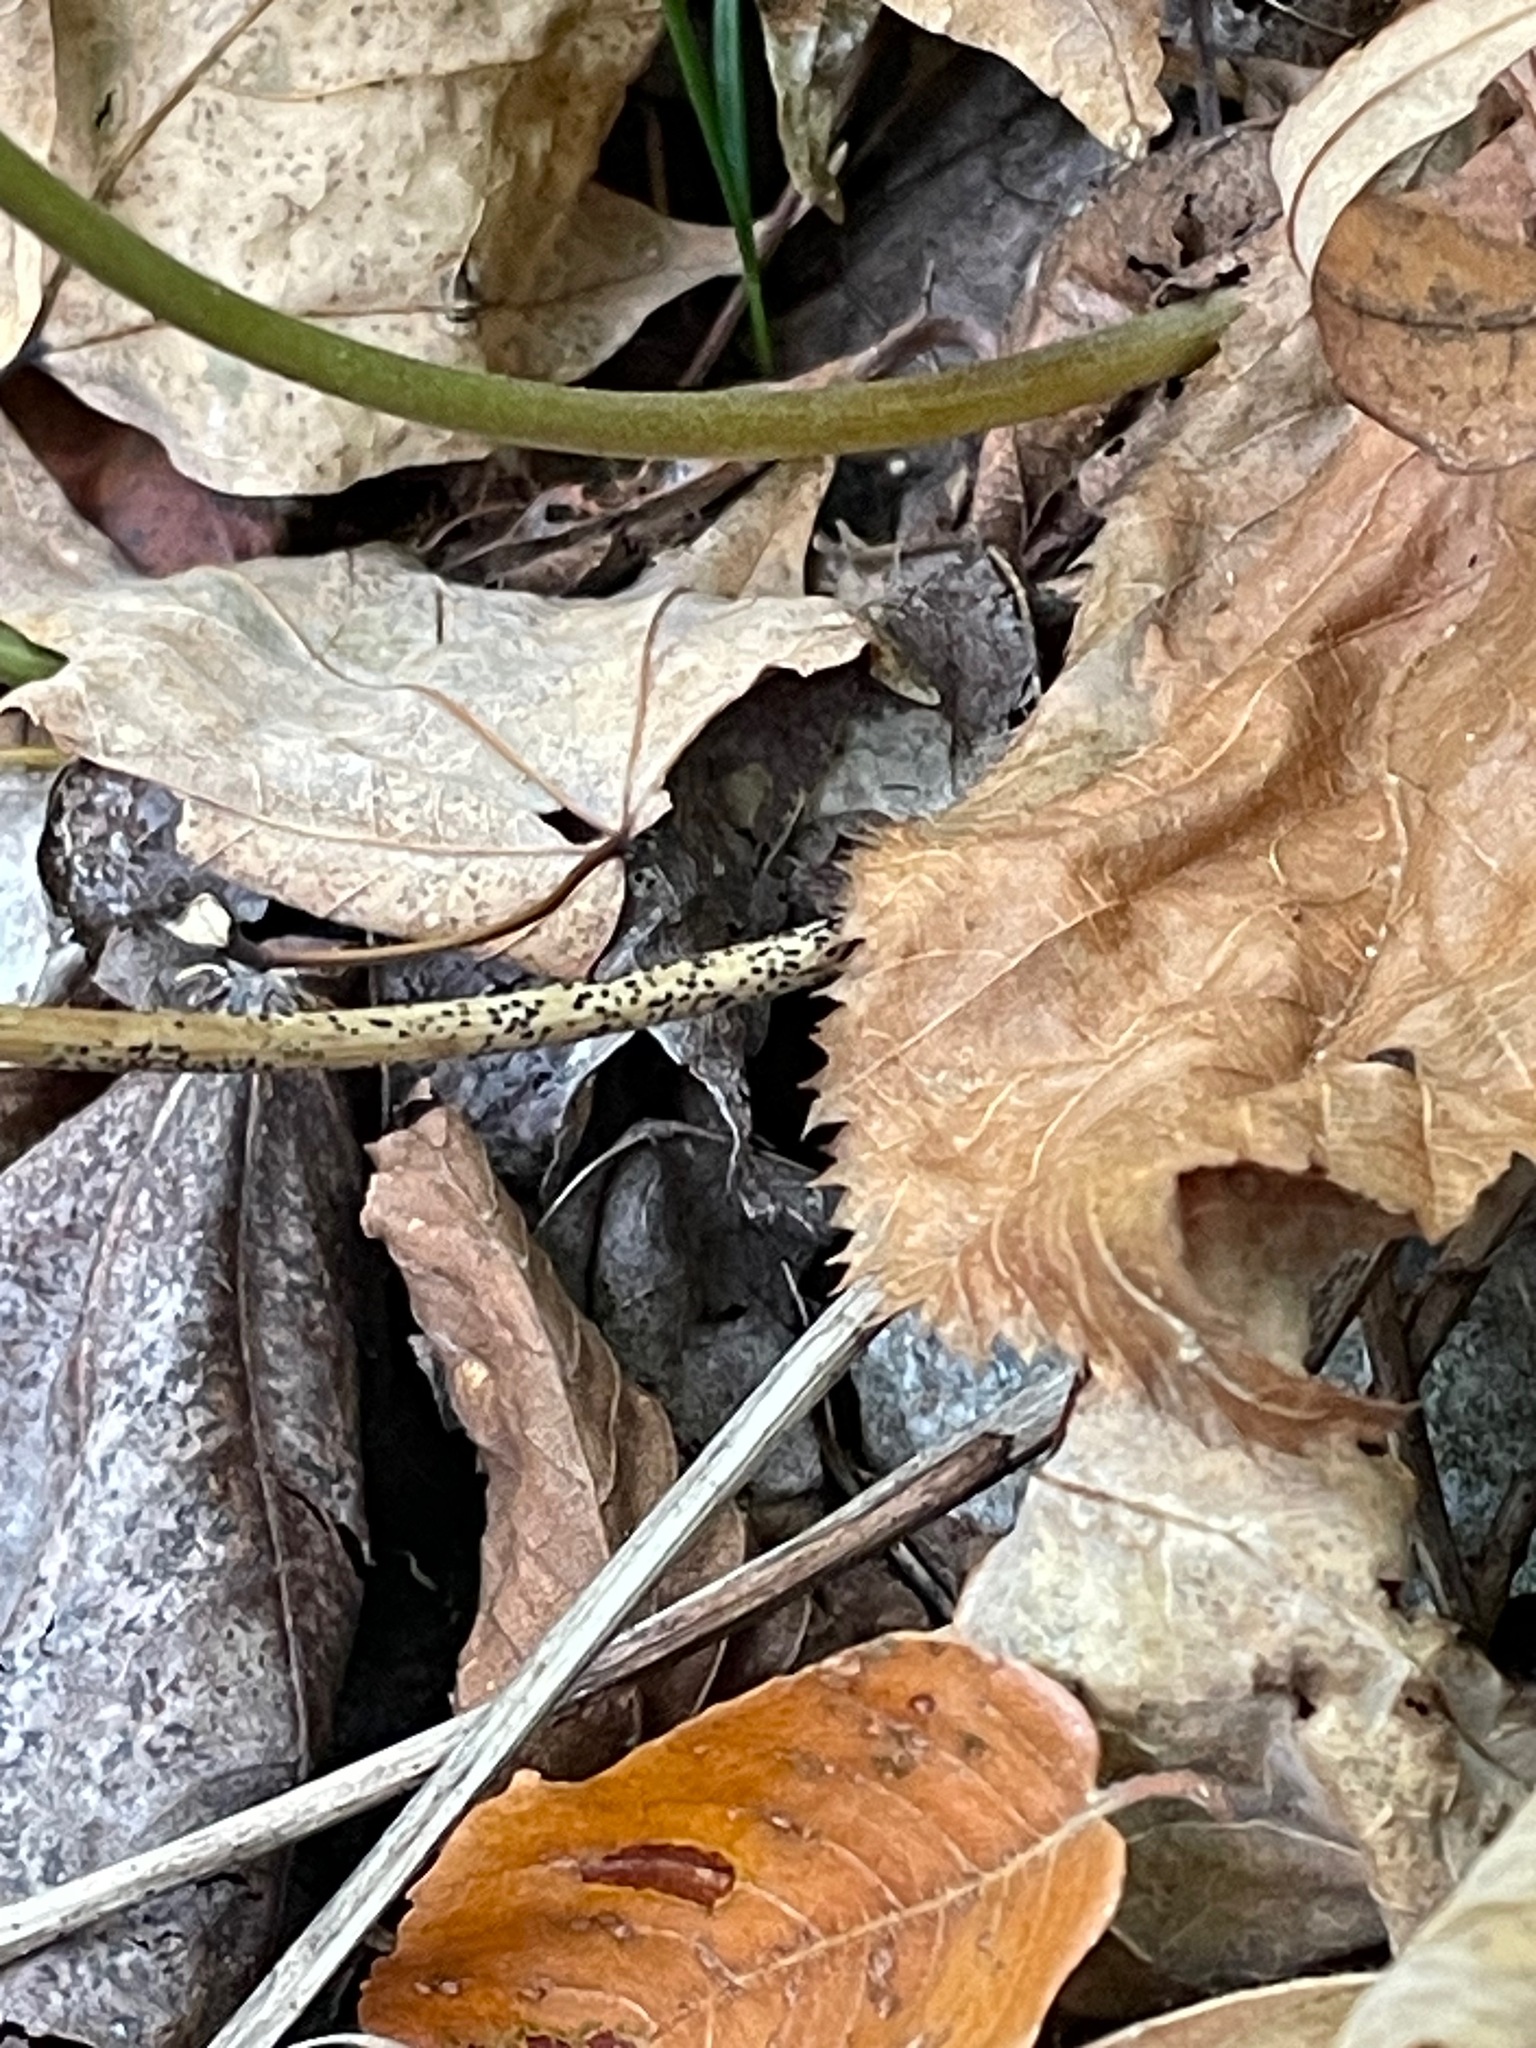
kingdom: Plantae
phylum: Tracheophyta
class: Magnoliopsida
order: Fabales
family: Fabaceae
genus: Hylodesmum
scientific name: Hylodesmum nudiflorum
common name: Bare-stemmed tick-trefoil
